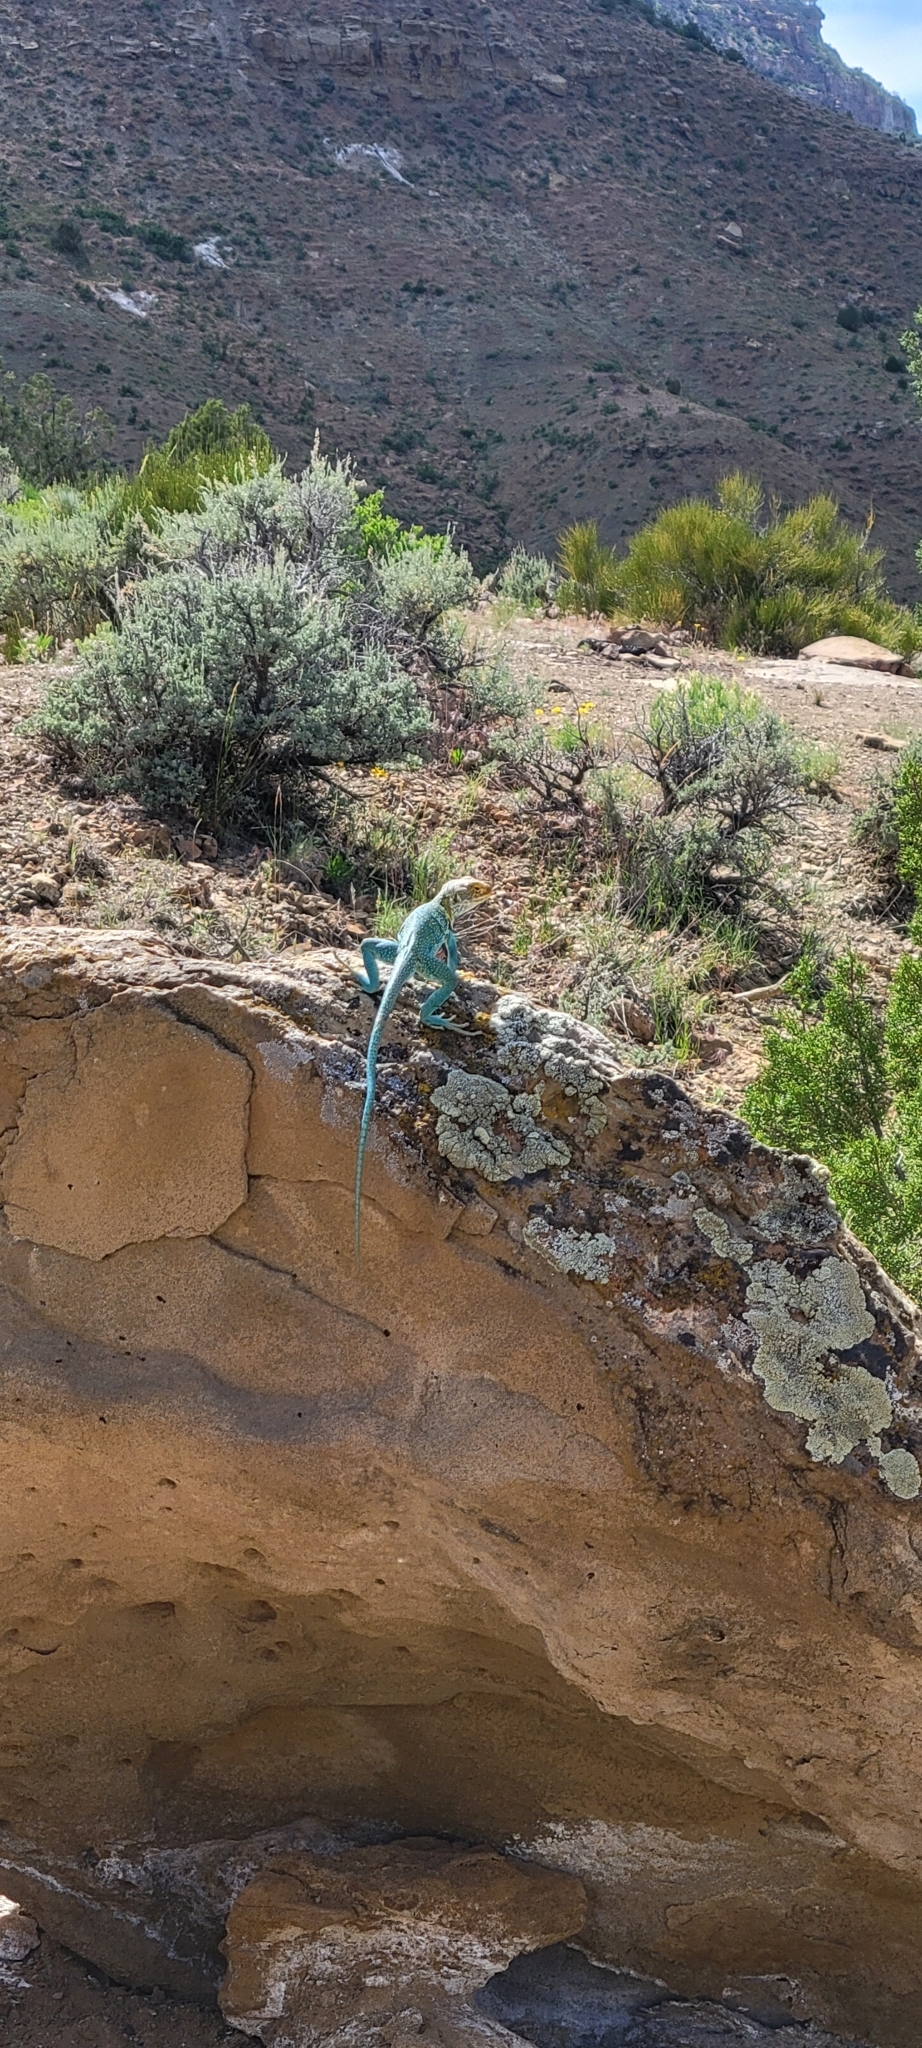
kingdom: Animalia
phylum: Chordata
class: Squamata
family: Crotaphytidae
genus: Crotaphytus
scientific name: Crotaphytus collaris
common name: Collared lizard
